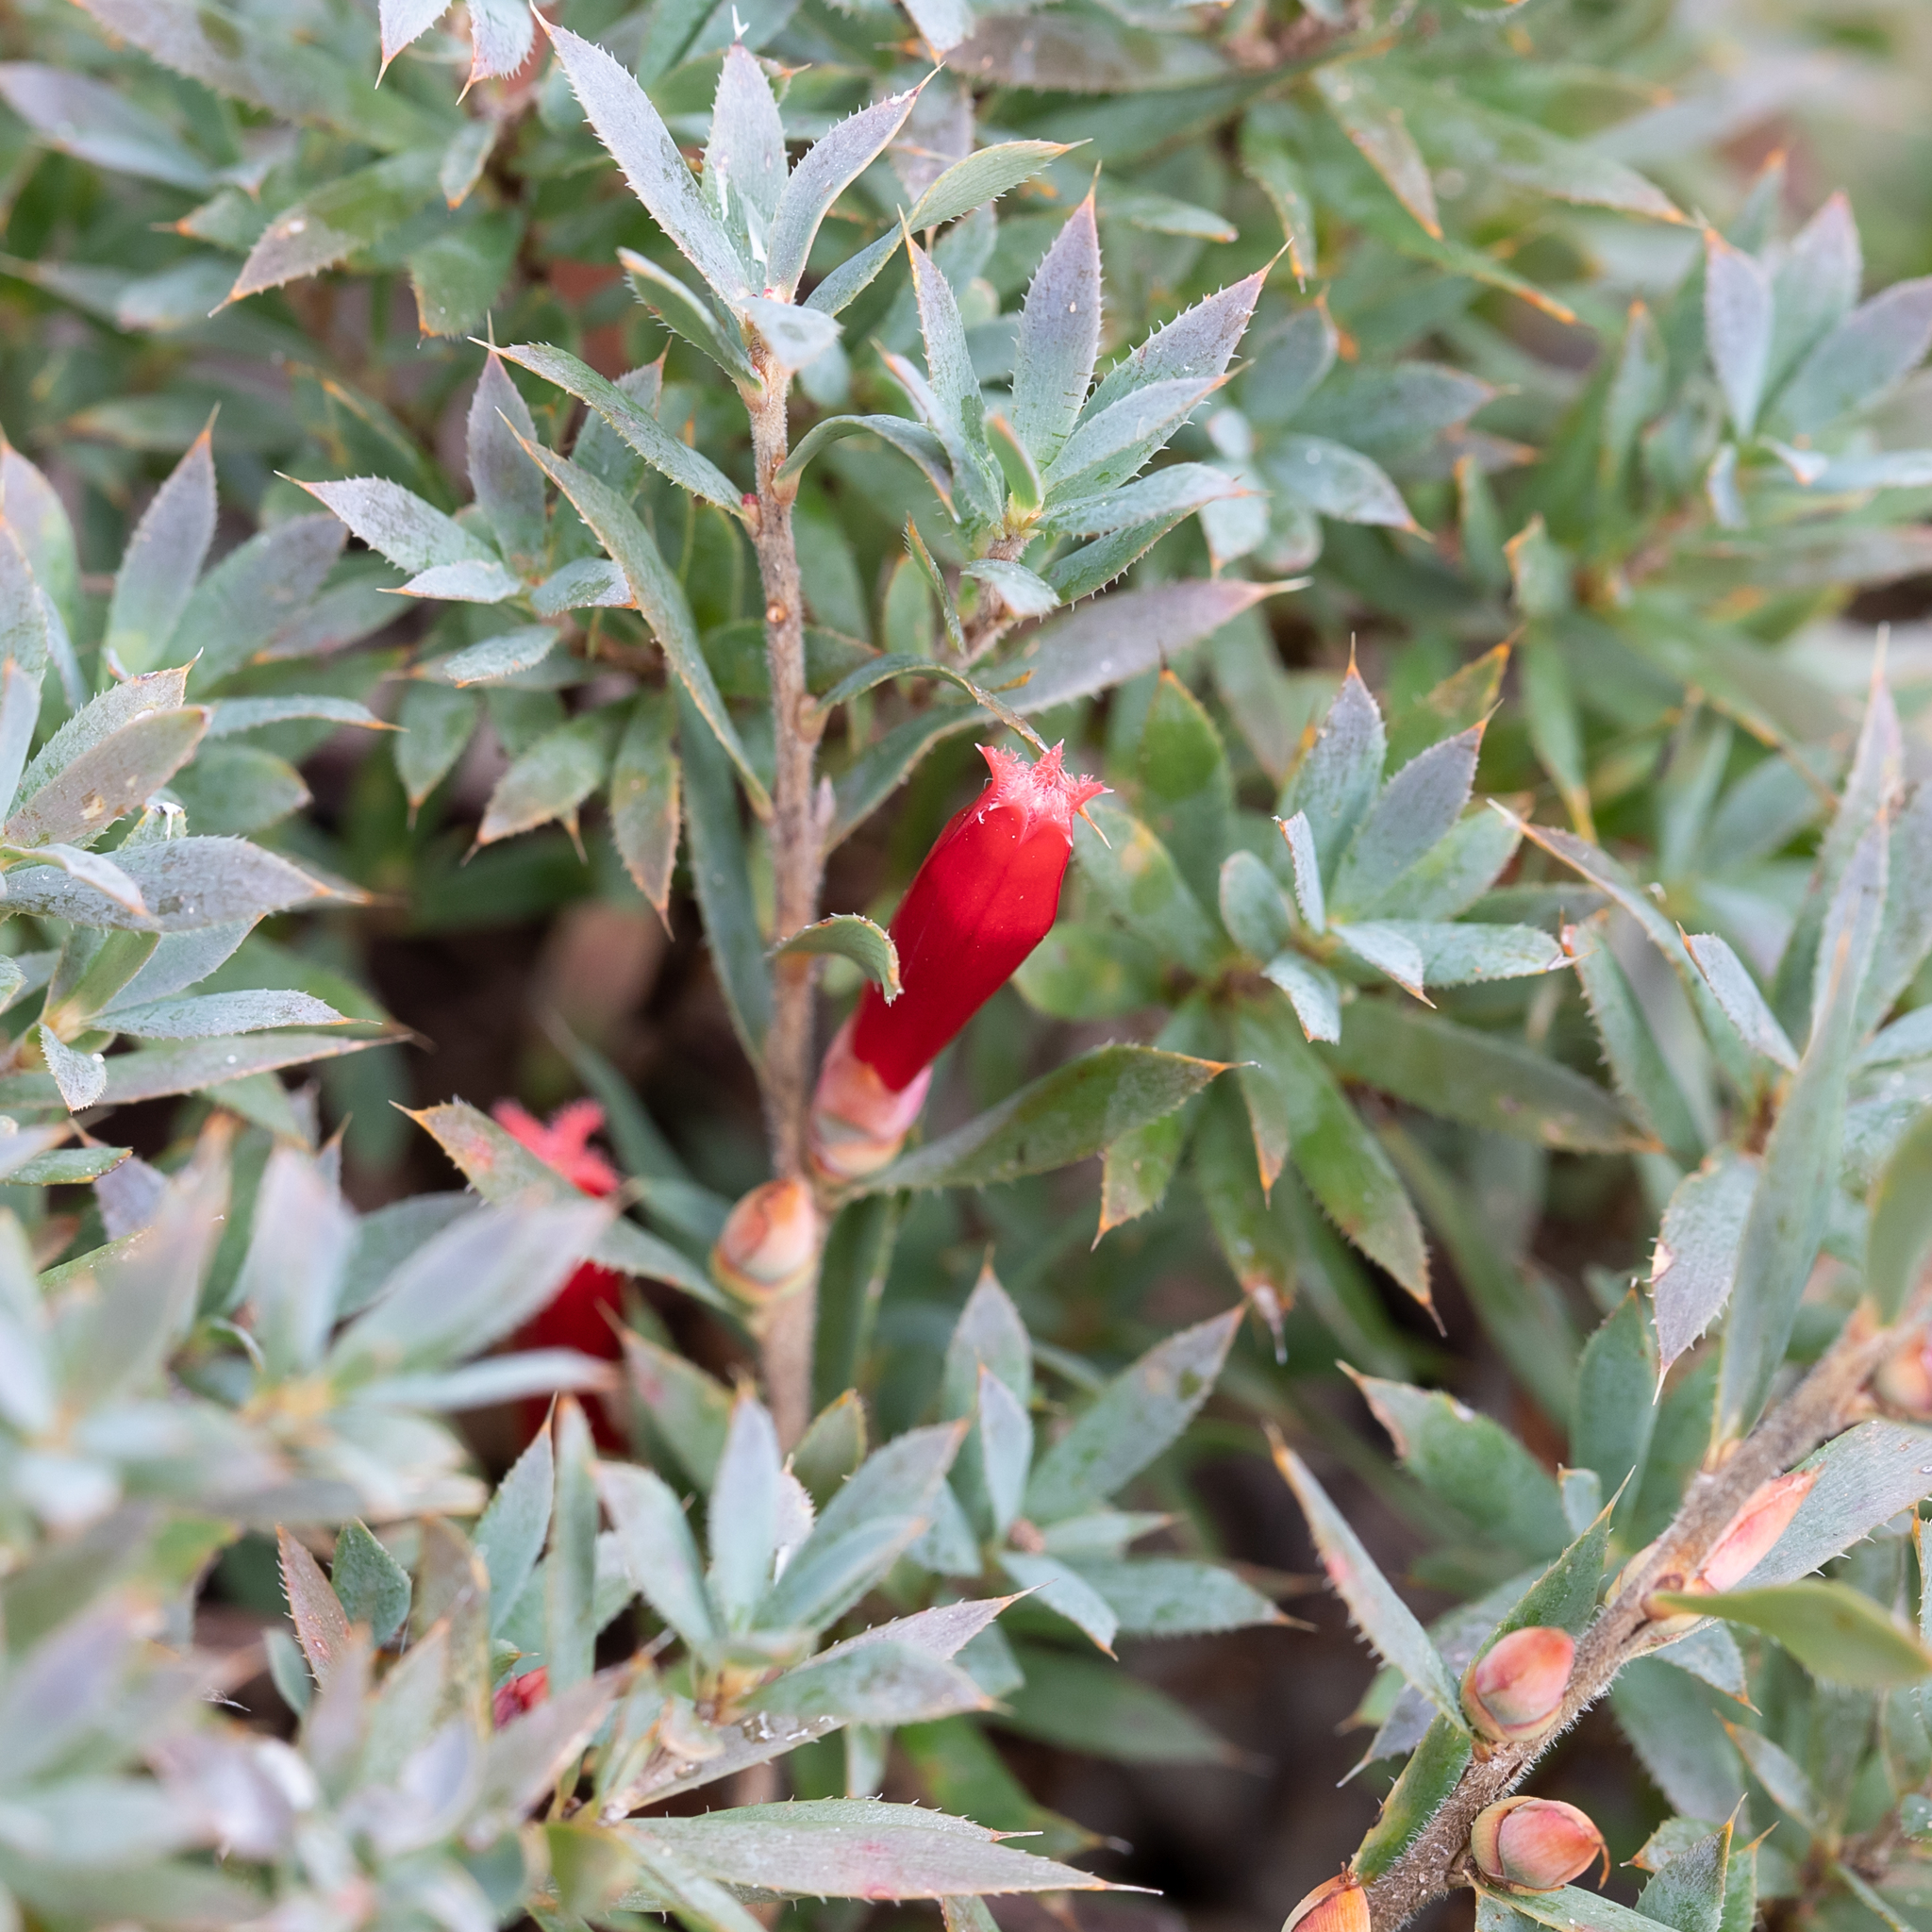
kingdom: Plantae
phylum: Tracheophyta
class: Magnoliopsida
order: Ericales
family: Ericaceae
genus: Styphelia
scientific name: Styphelia humifusa
